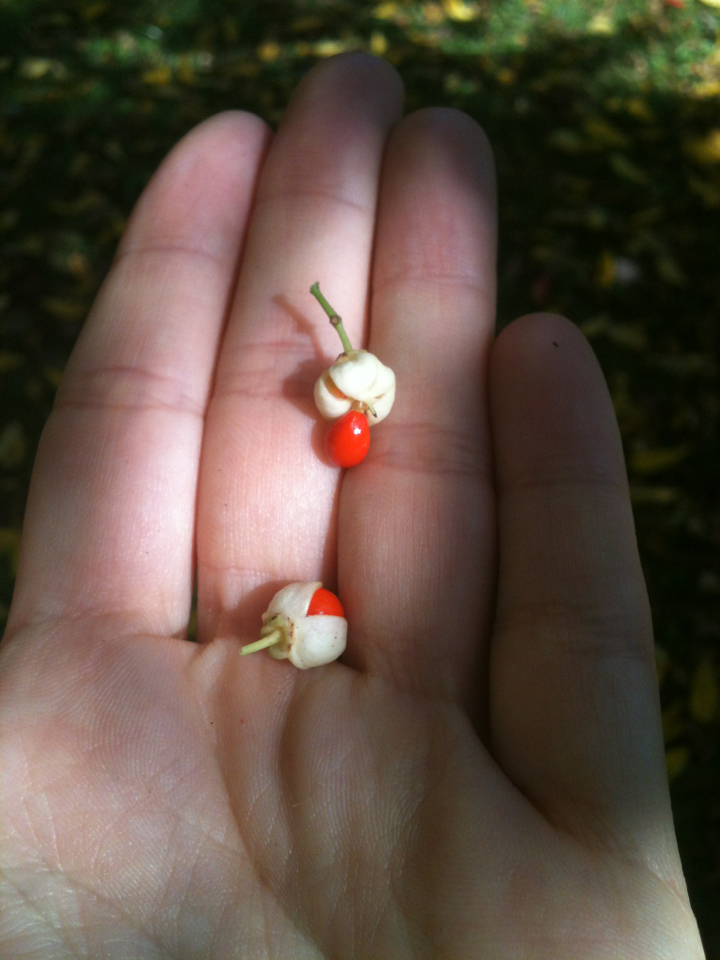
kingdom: Plantae
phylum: Tracheophyta
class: Magnoliopsida
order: Celastrales
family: Celastraceae
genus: Euonymus
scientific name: Euonymus fortunei
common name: Climbing euonymus
